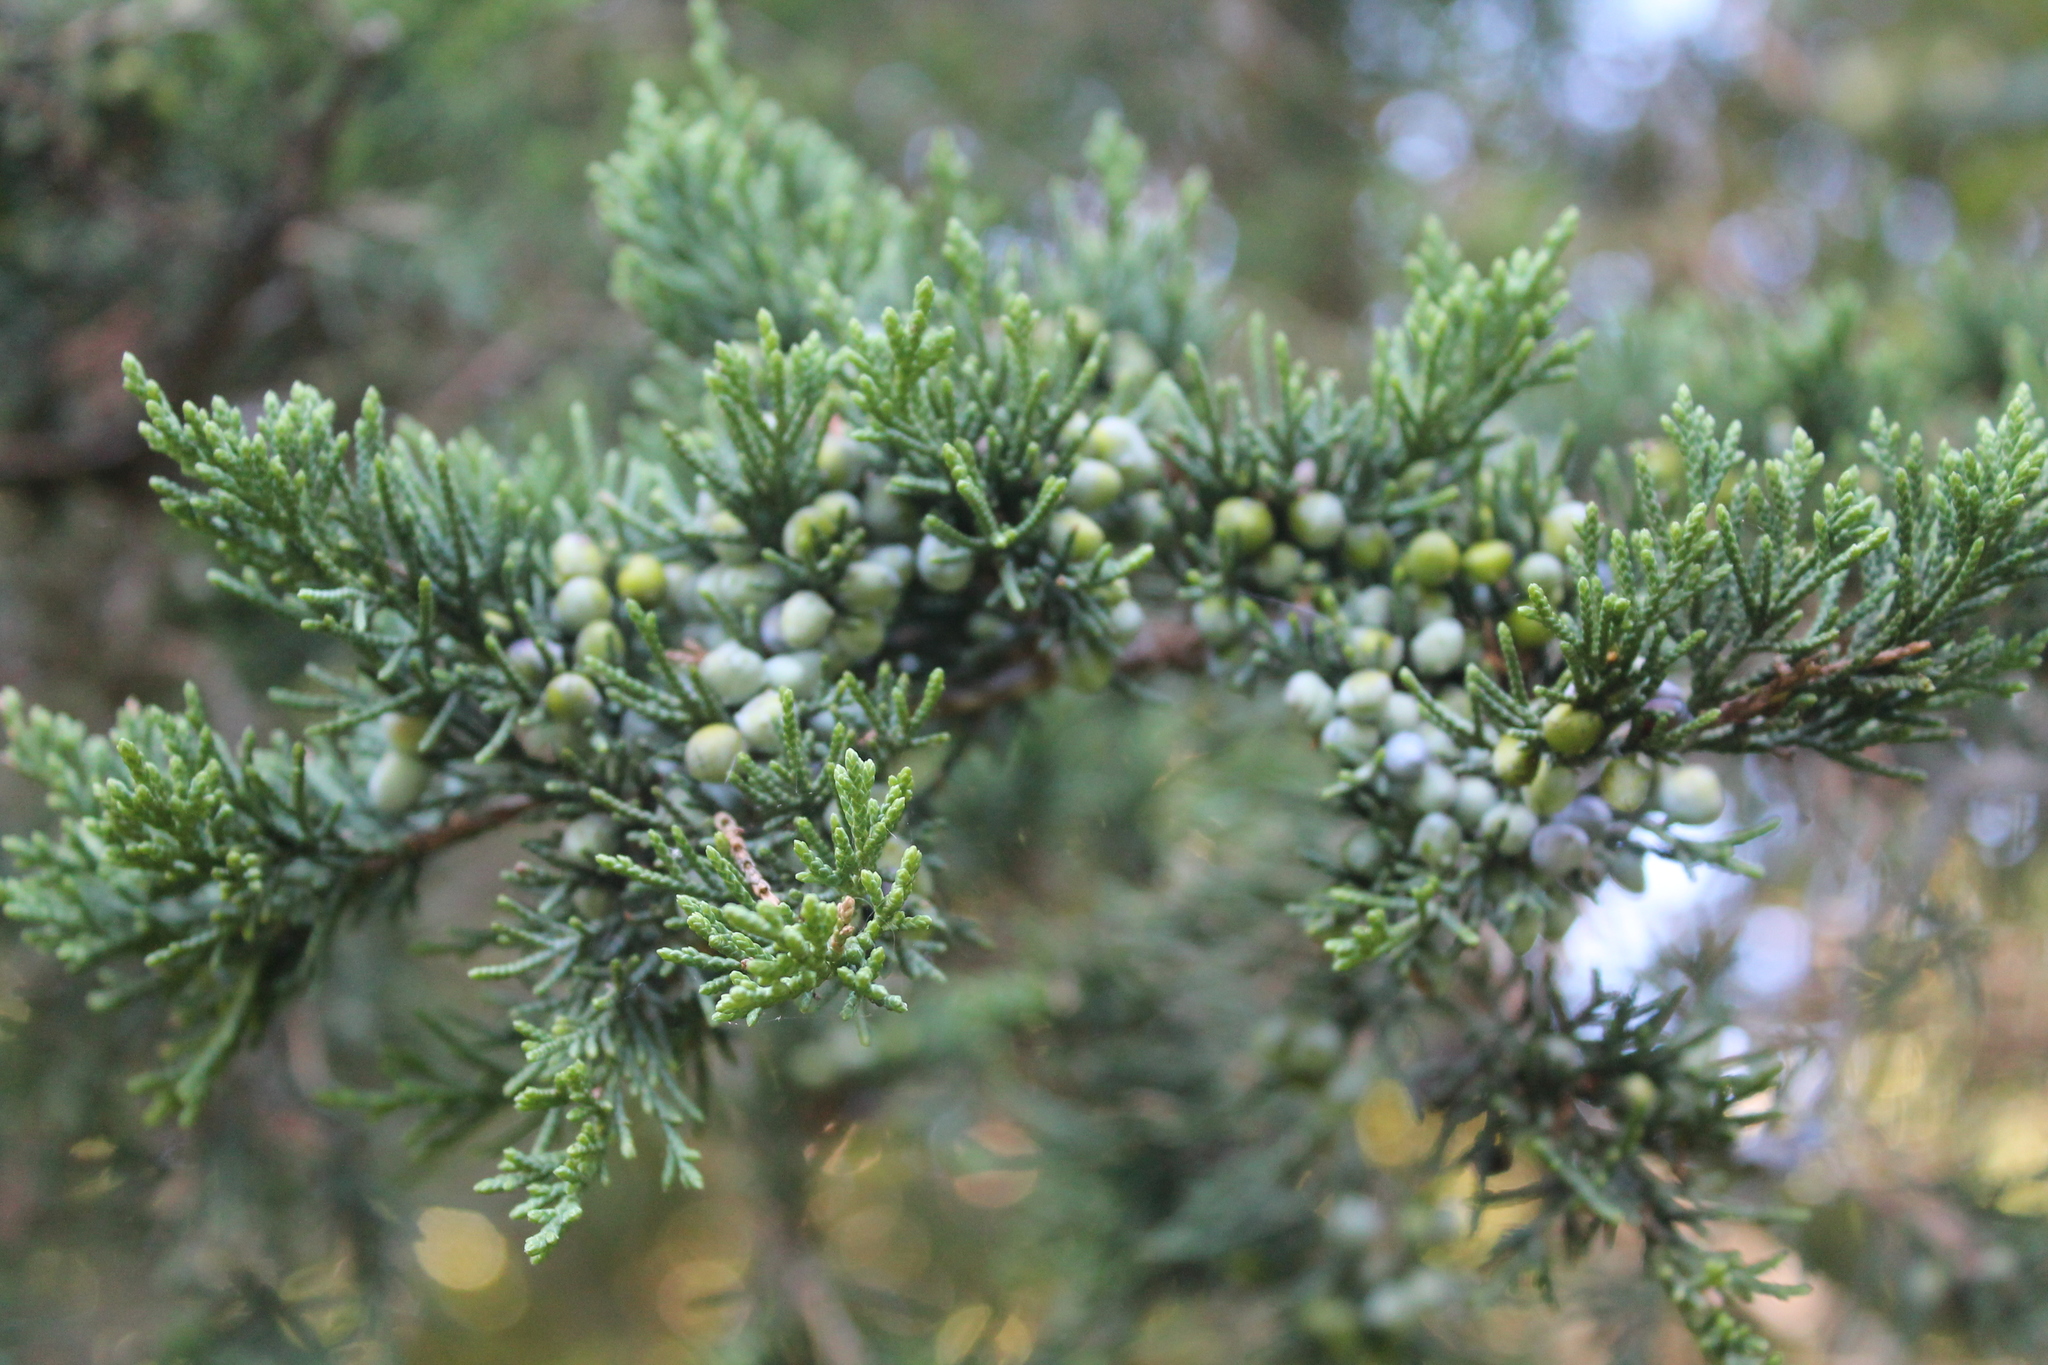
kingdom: Plantae
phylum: Tracheophyta
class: Pinopsida
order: Pinales
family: Cupressaceae
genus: Juniperus
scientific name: Juniperus virginiana
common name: Red juniper
